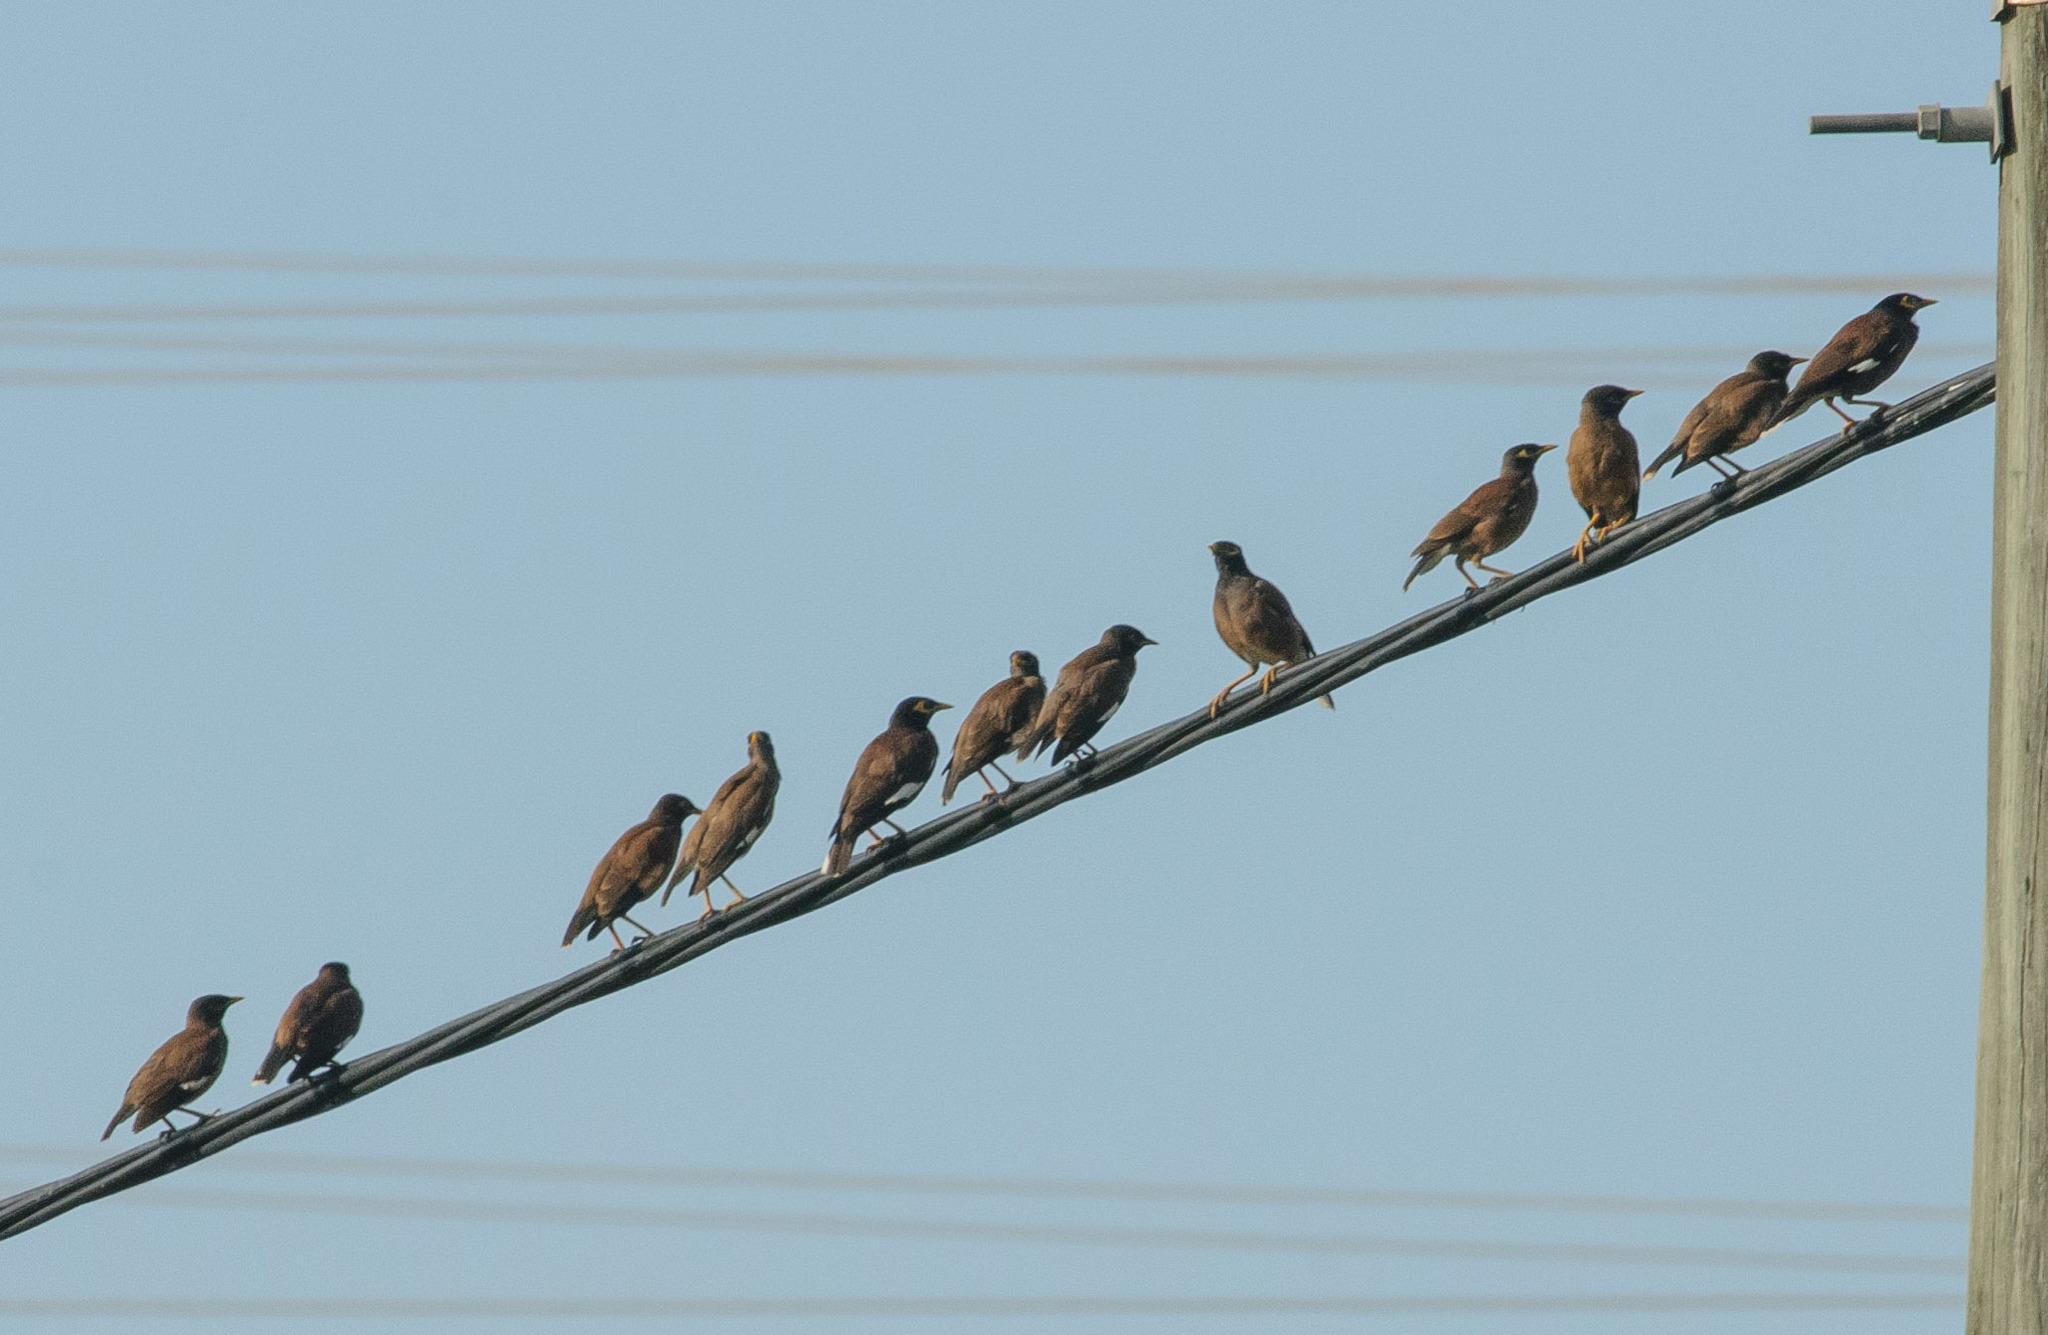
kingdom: Animalia
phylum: Chordata
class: Aves
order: Passeriformes
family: Sturnidae
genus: Acridotheres
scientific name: Acridotheres tristis
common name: Common myna
